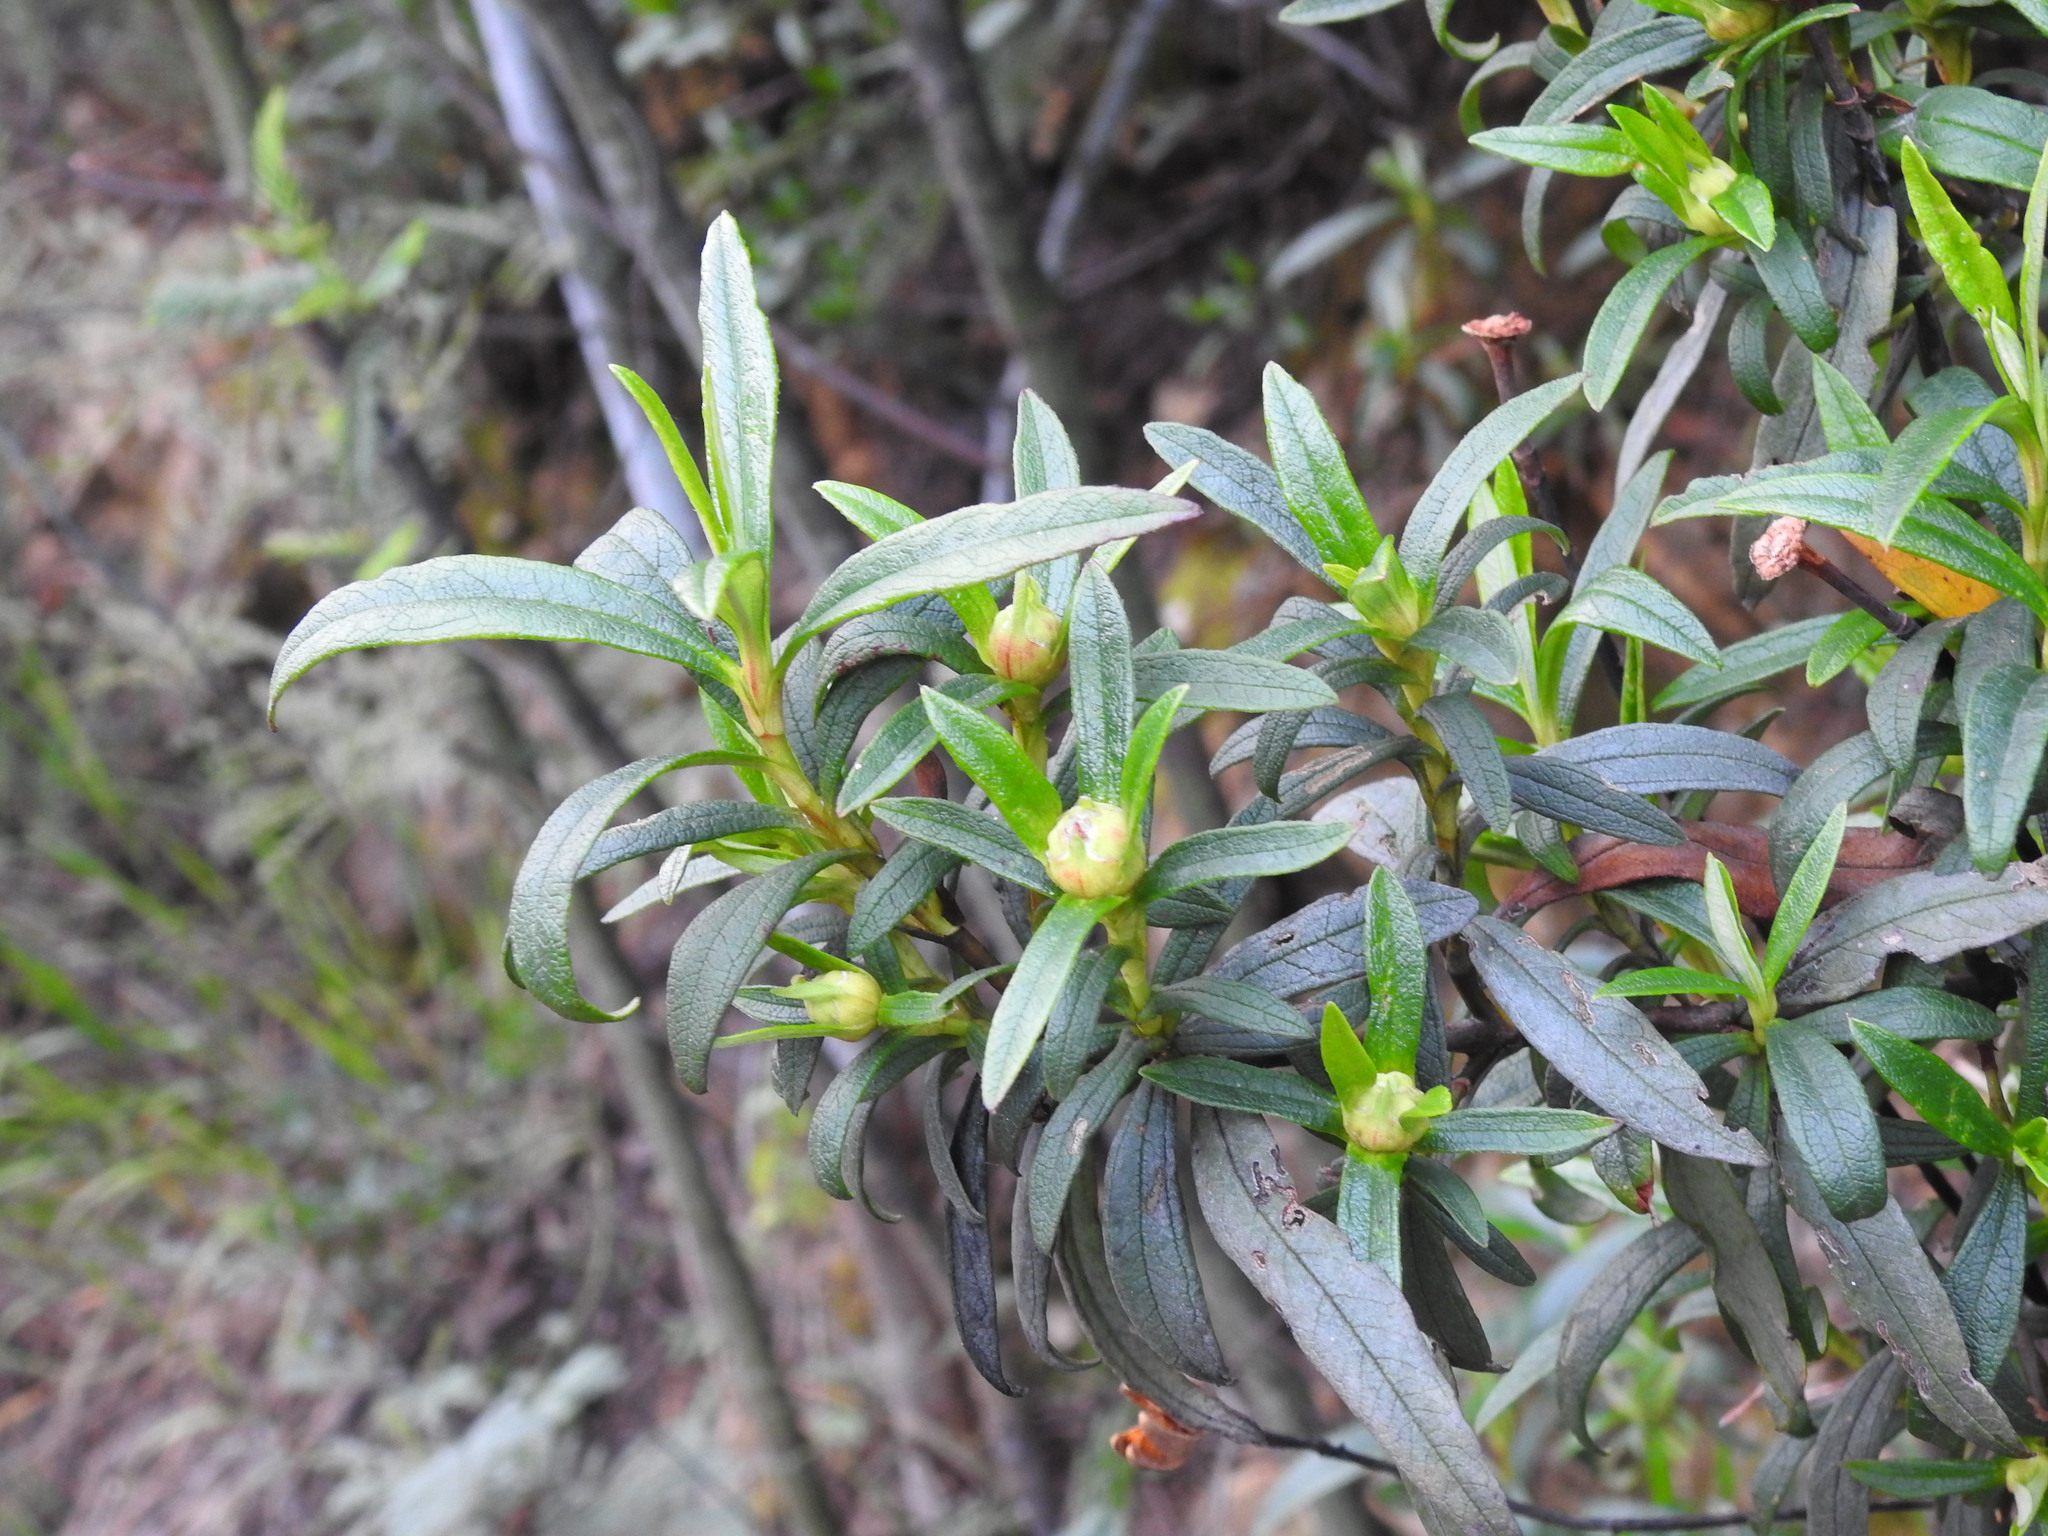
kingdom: Plantae
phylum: Tracheophyta
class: Magnoliopsida
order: Malvales
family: Cistaceae
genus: Cistus
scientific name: Cistus ladanifer
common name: Common gum cistus
